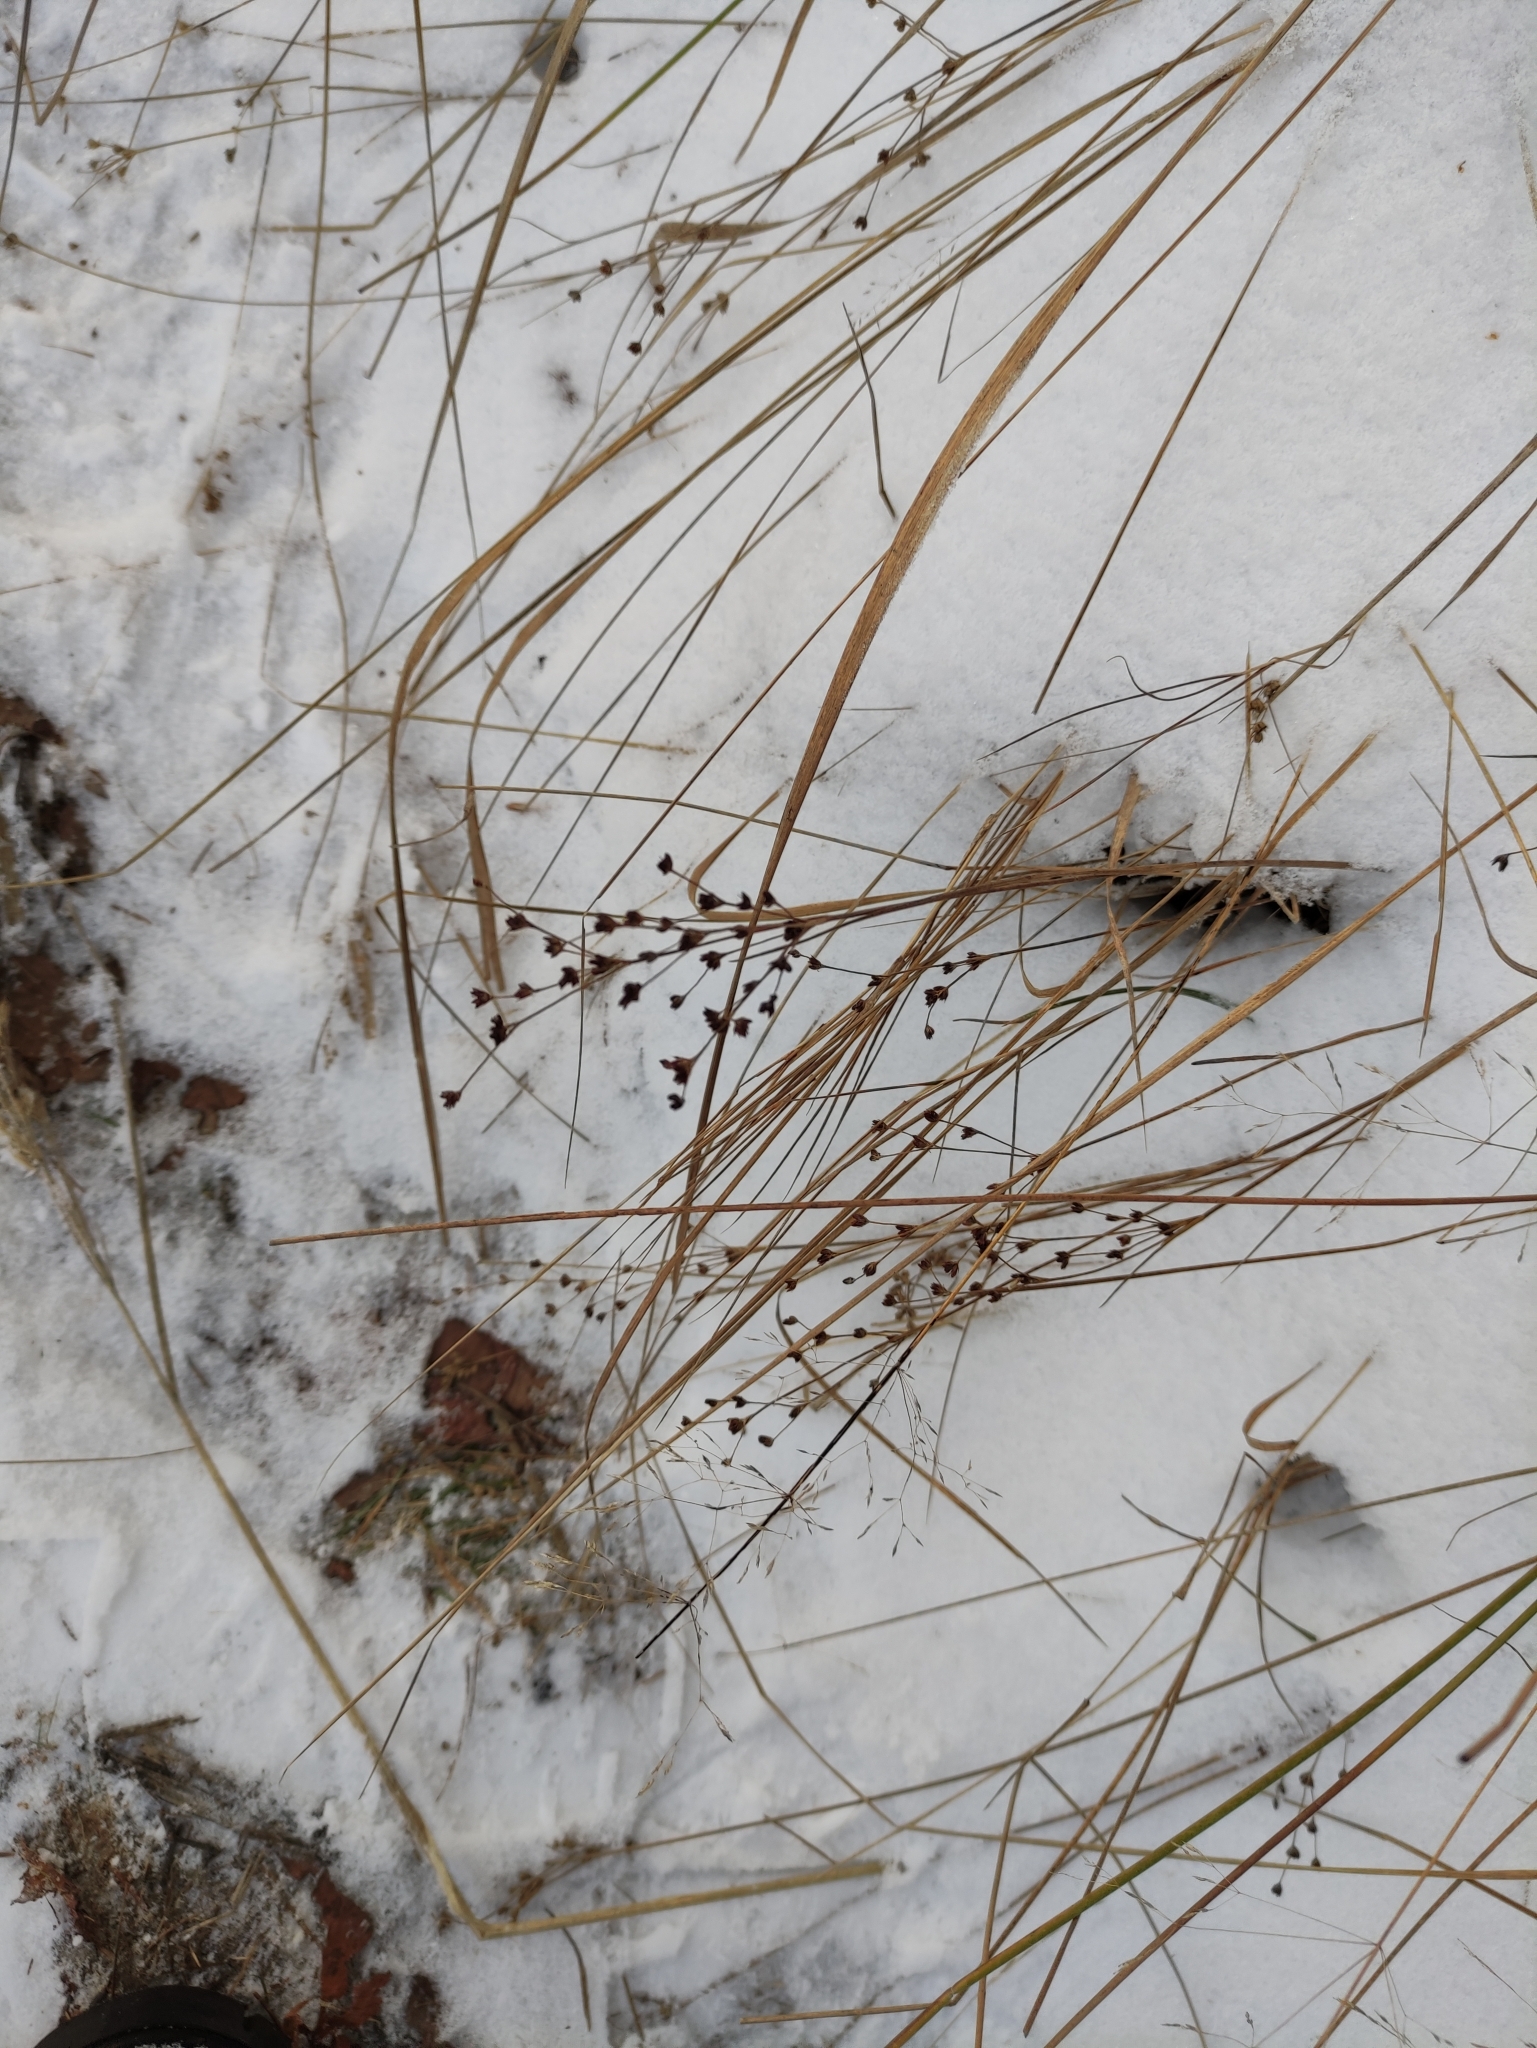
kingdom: Plantae
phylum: Tracheophyta
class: Liliopsida
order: Poales
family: Juncaceae
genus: Juncus
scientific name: Juncus articulatus
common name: Jointed rush
